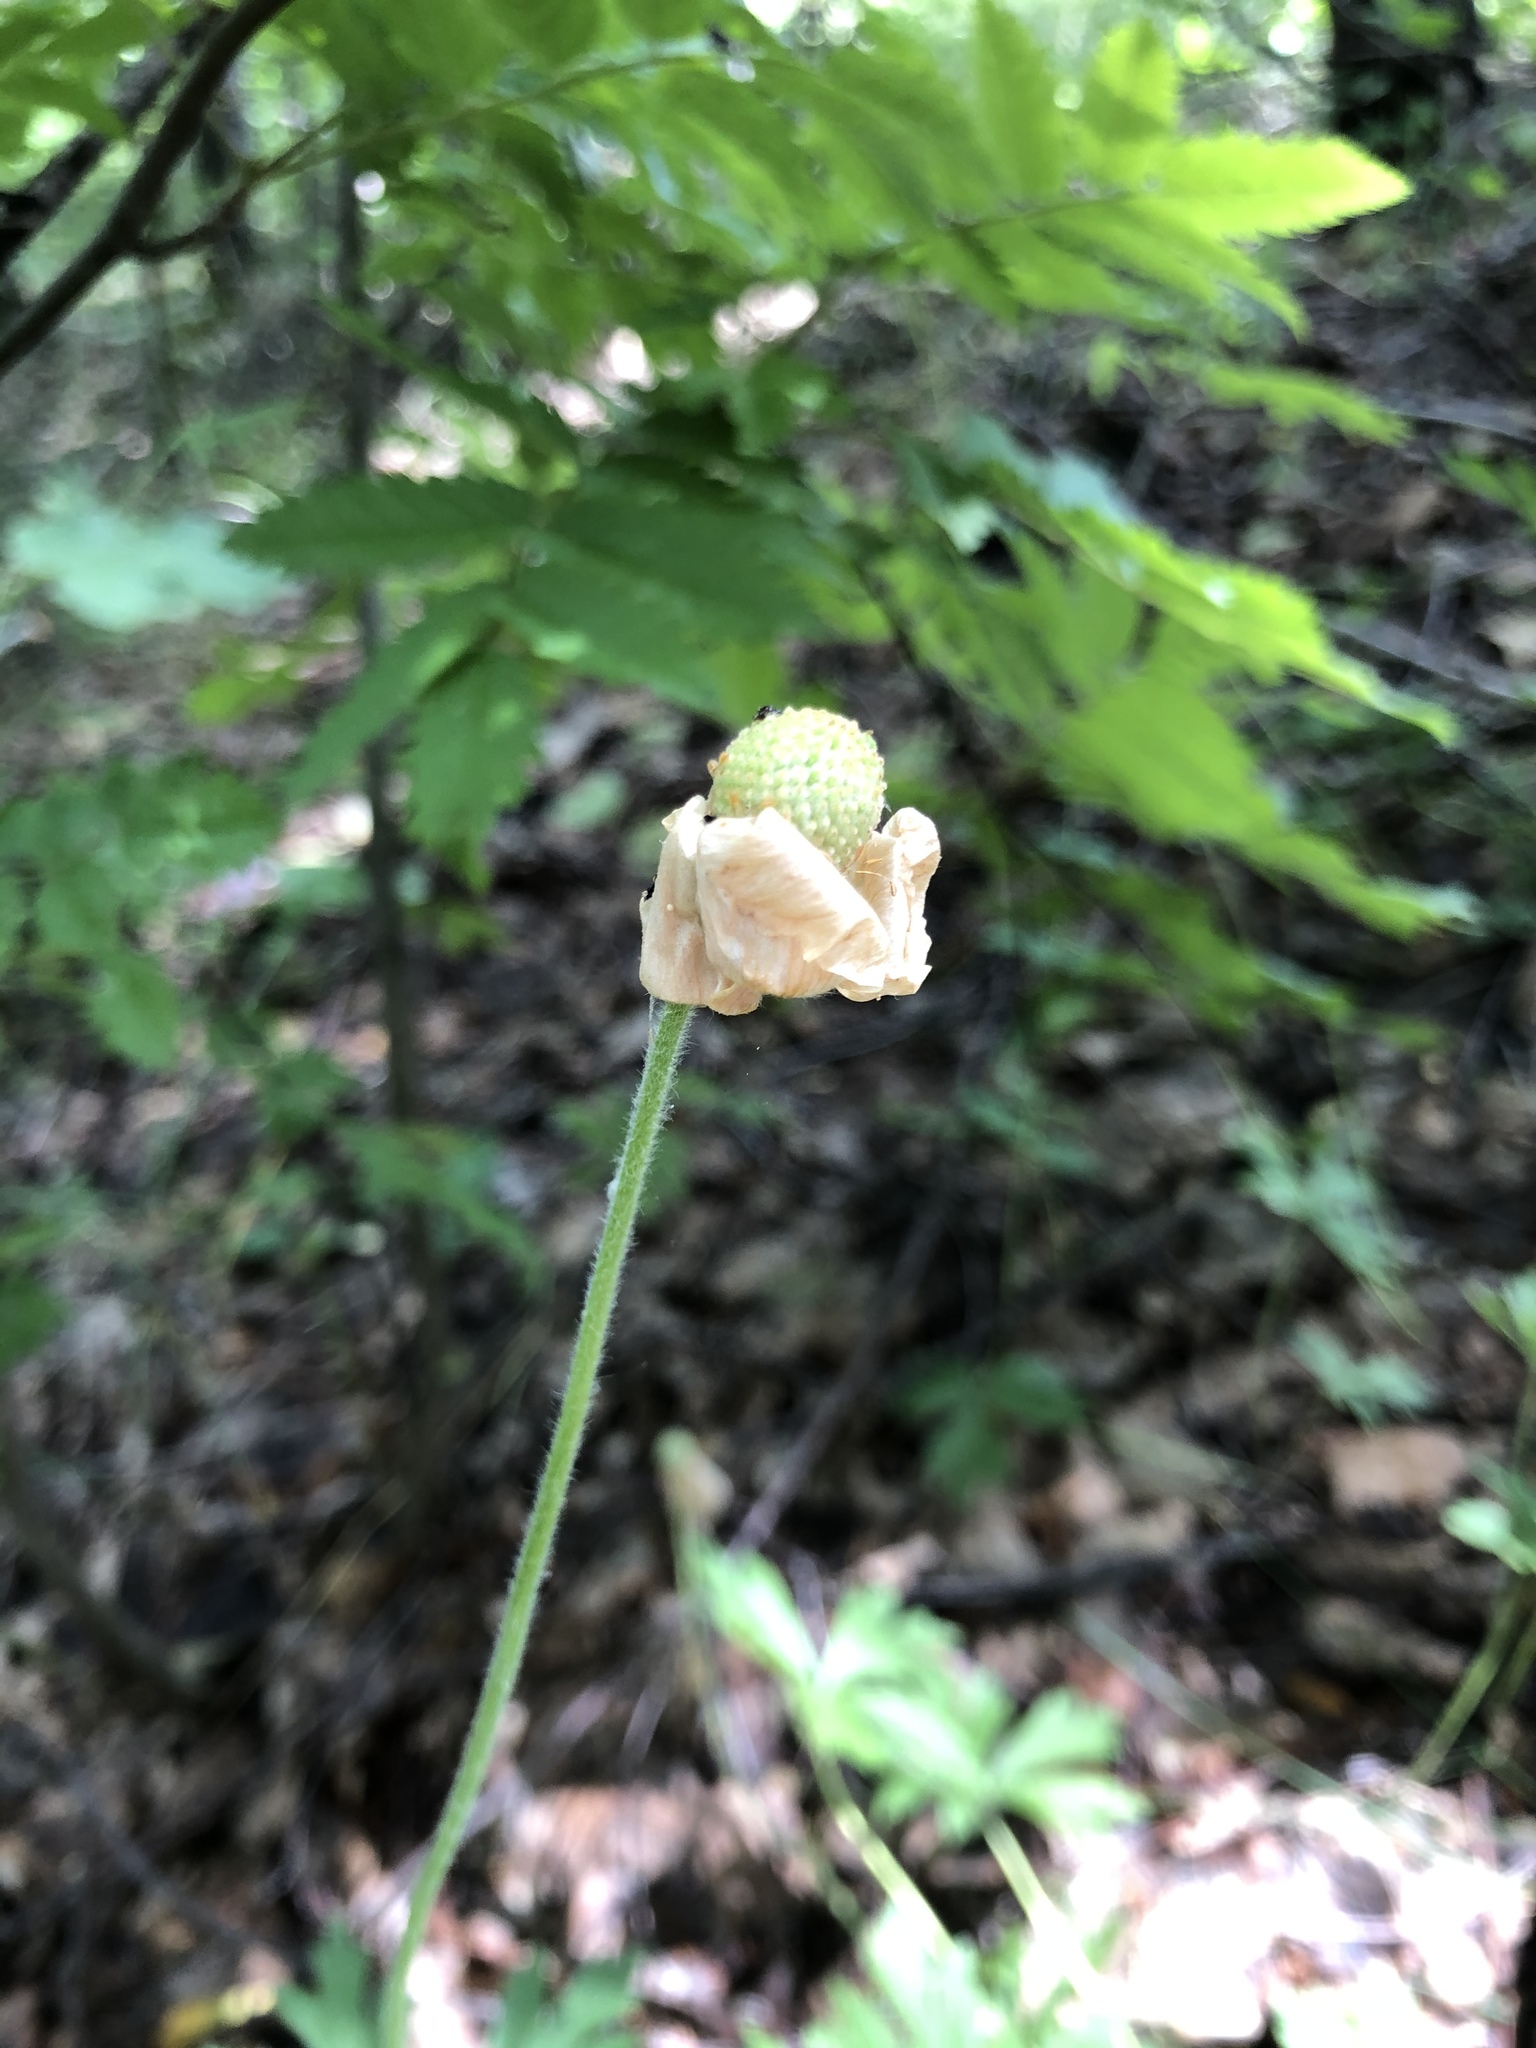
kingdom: Plantae
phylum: Tracheophyta
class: Magnoliopsida
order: Ranunculales
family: Ranunculaceae
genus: Anemone
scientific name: Anemone sylvestris
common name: Snowdrop anemone
